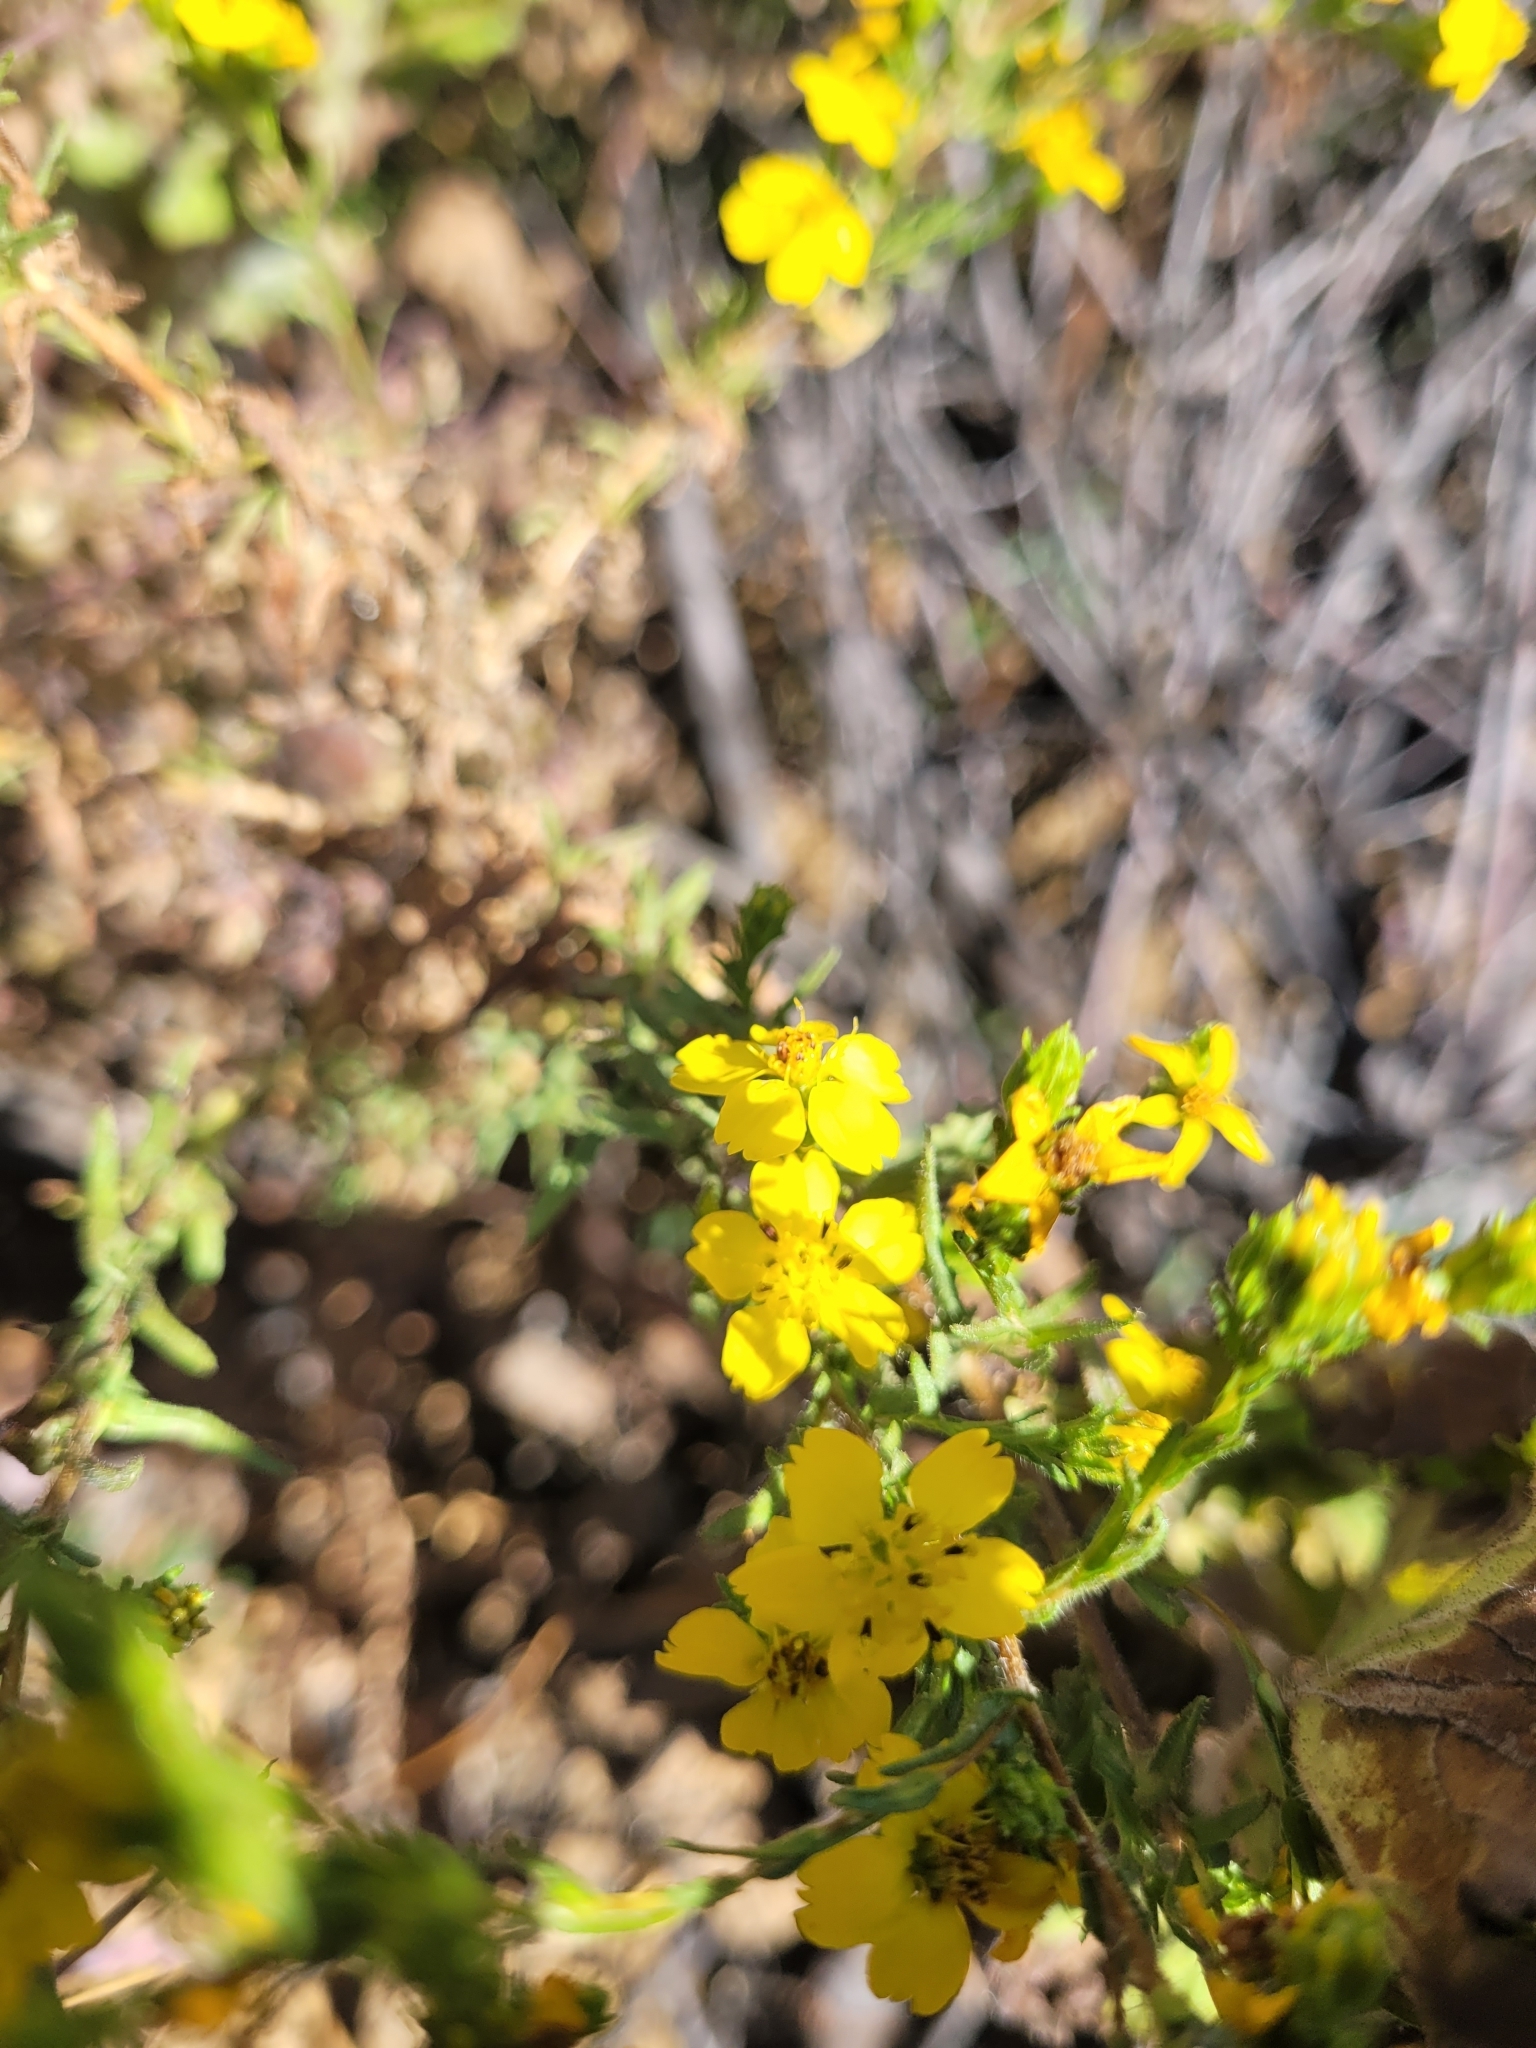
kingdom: Plantae
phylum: Tracheophyta
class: Magnoliopsida
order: Asterales
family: Asteraceae
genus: Deinandra
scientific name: Deinandra fasciculata
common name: Clustered tarweed
